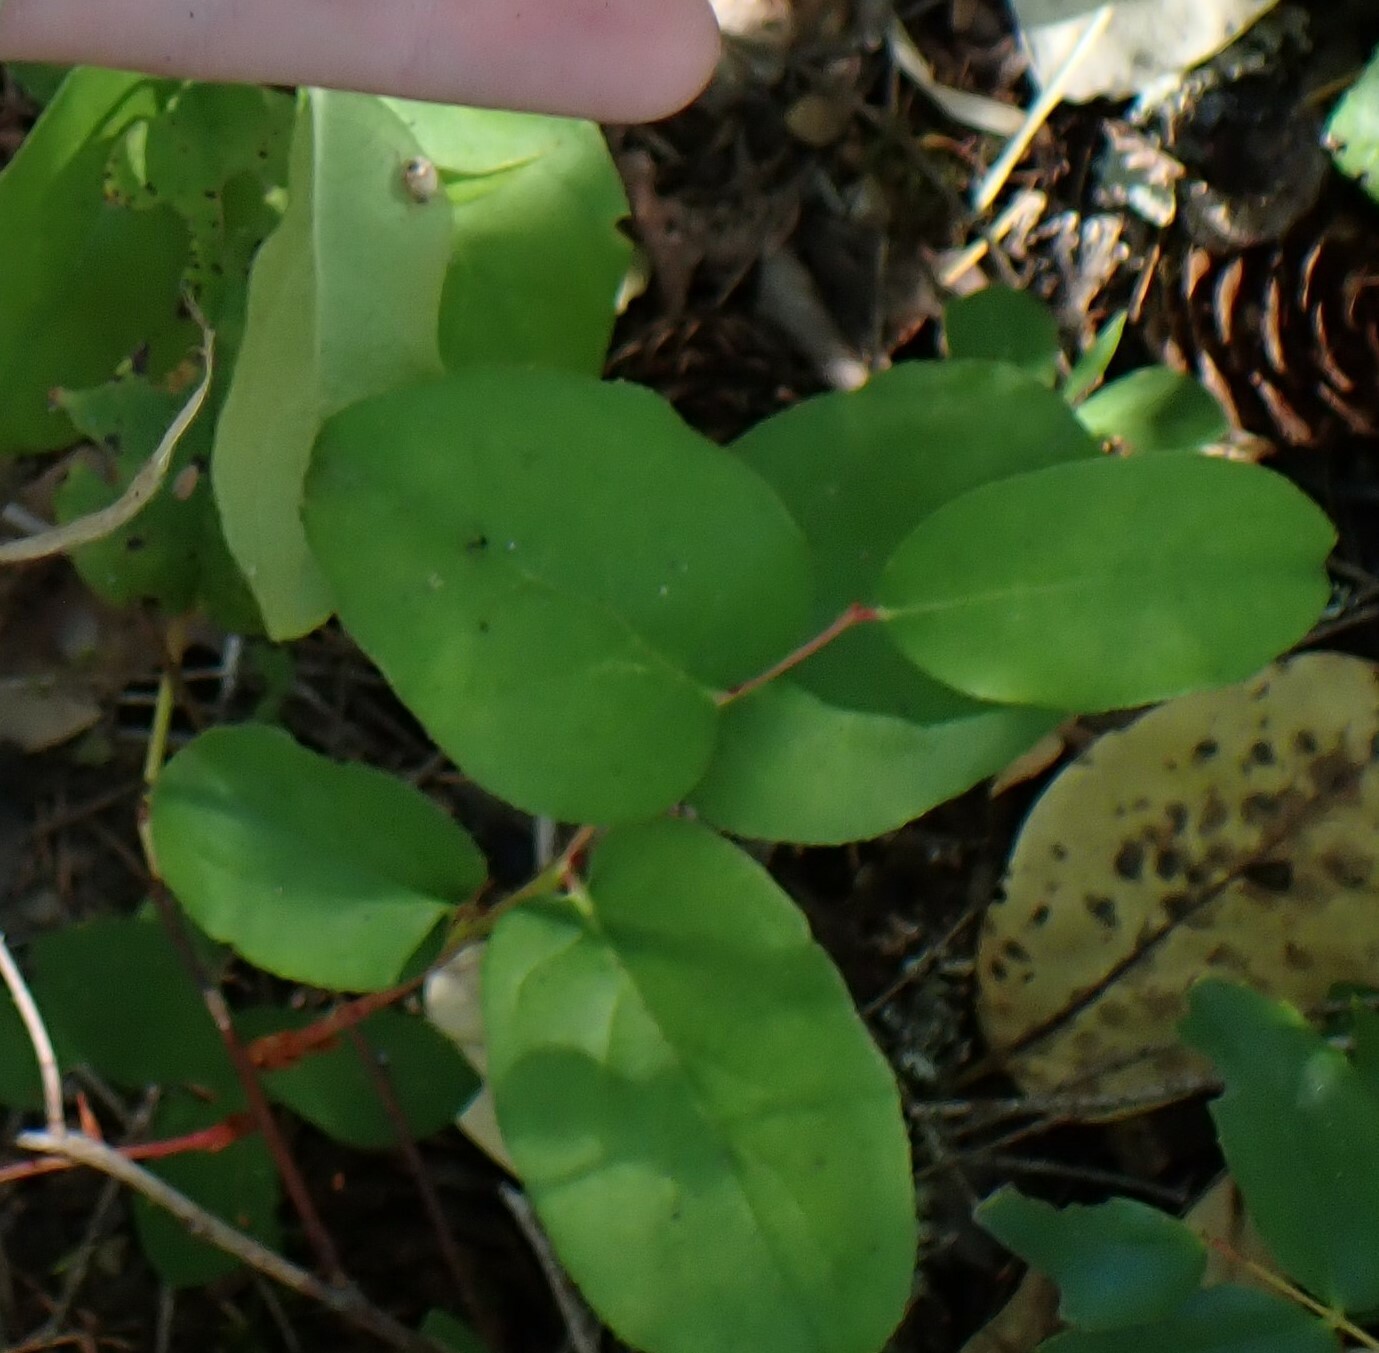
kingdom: Plantae
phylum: Tracheophyta
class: Magnoliopsida
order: Ericales
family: Ericaceae
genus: Gaultheria
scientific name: Gaultheria shallon
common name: Shallon
